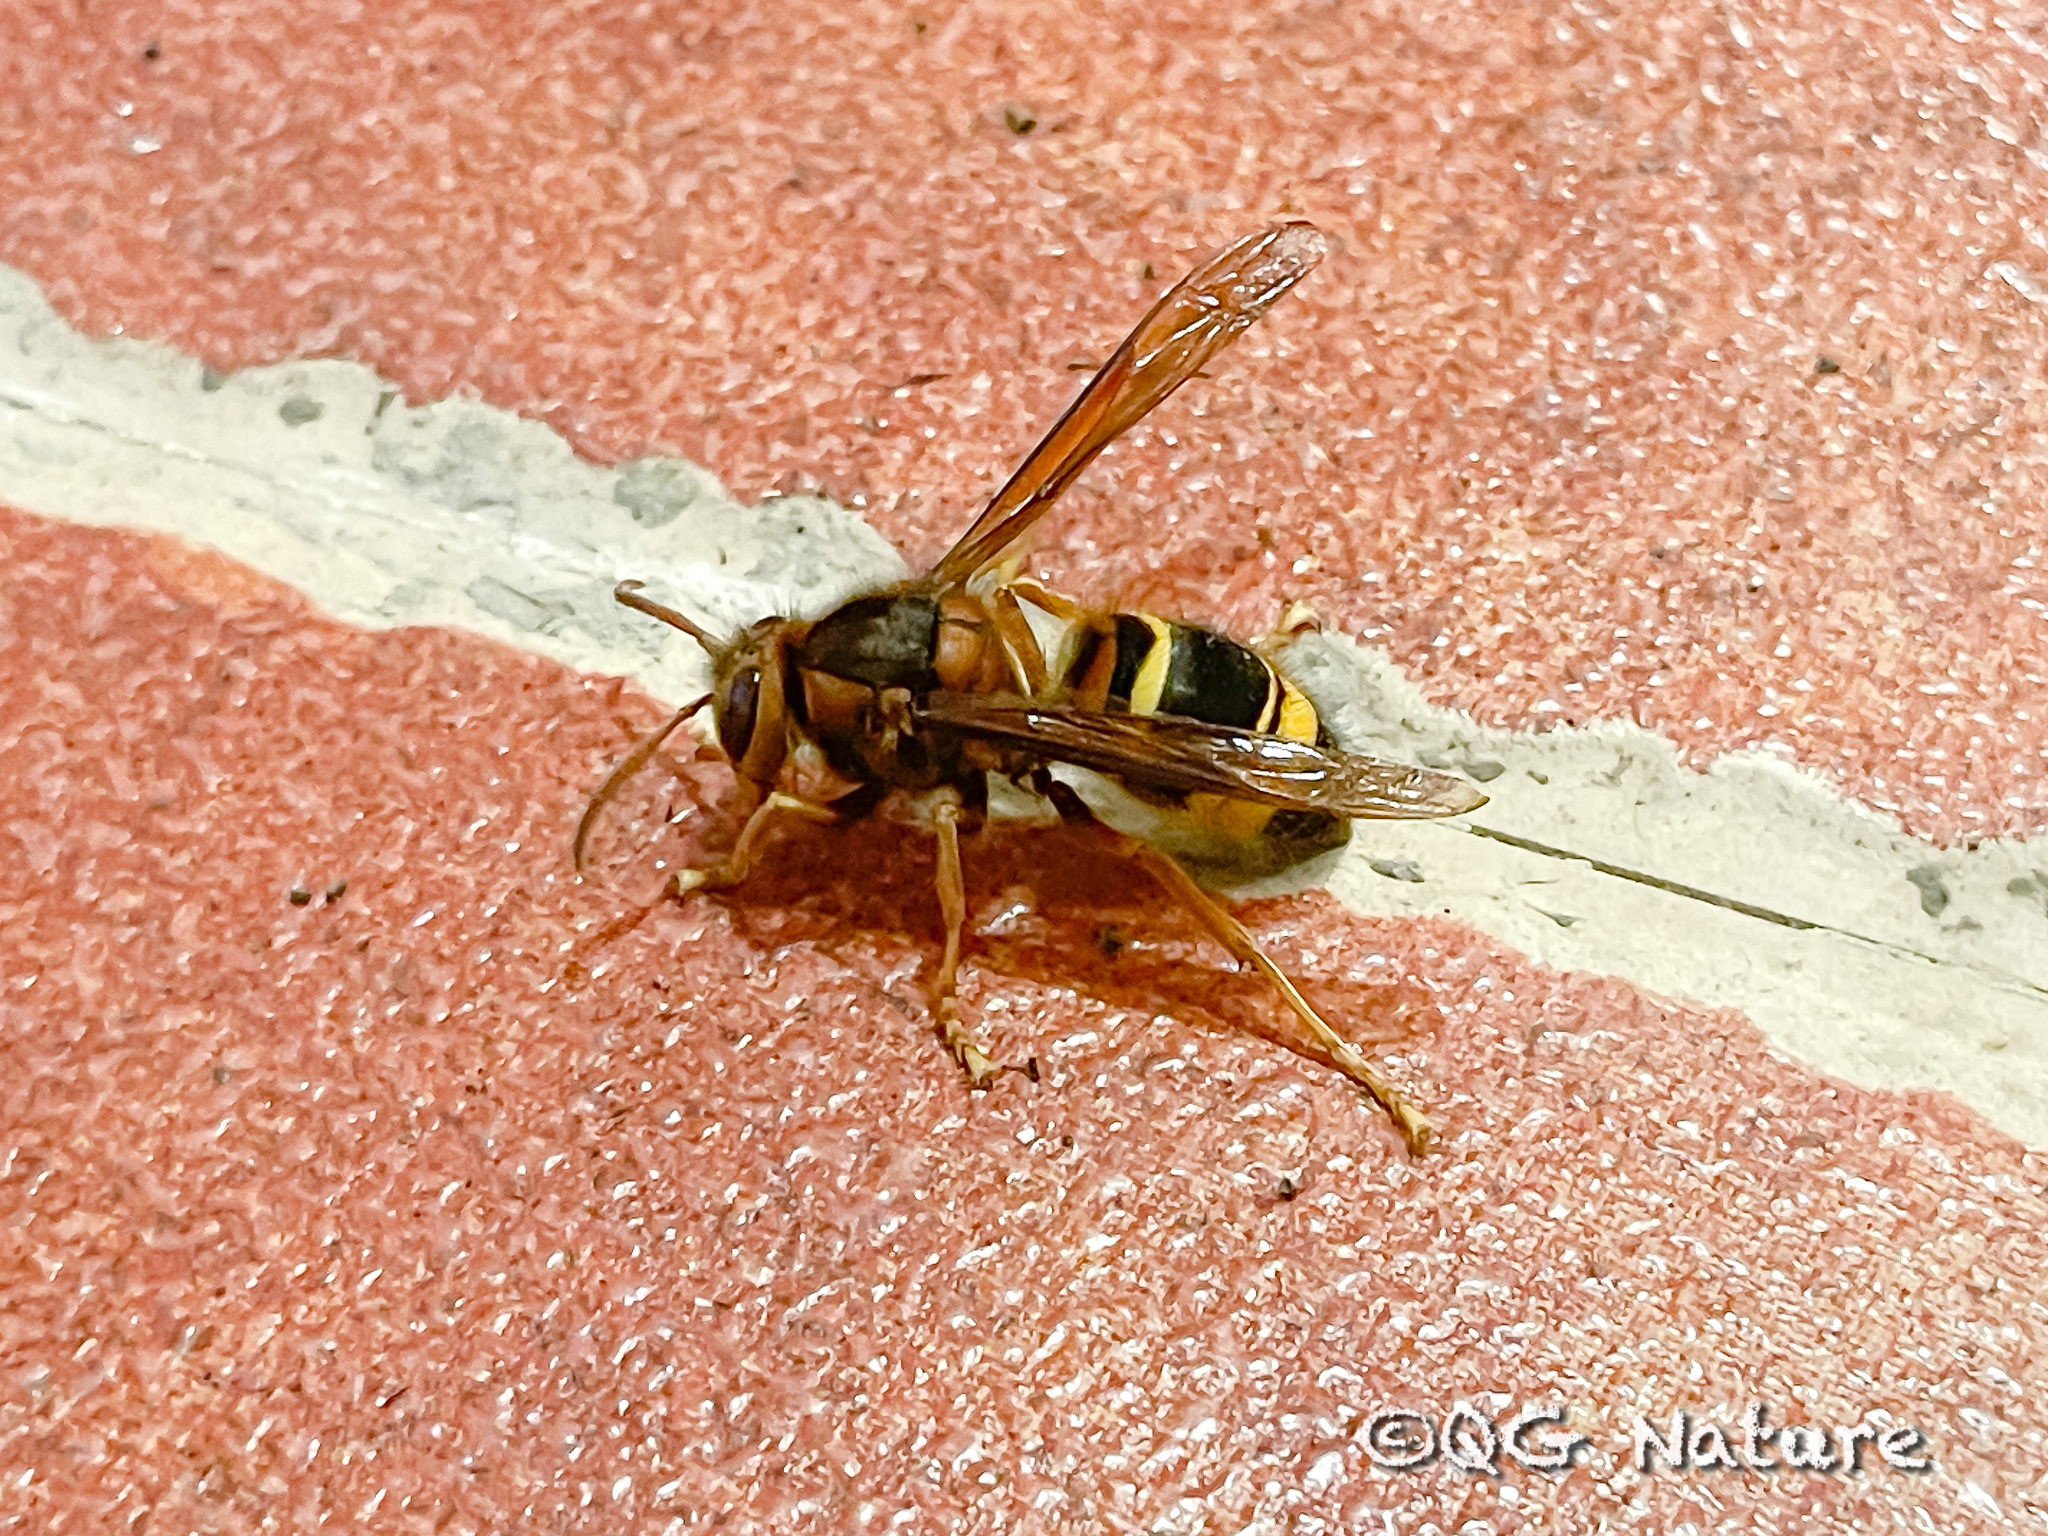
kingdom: Animalia
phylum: Arthropoda
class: Insecta
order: Hymenoptera
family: Vespidae
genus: Vespa
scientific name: Vespa vivax
